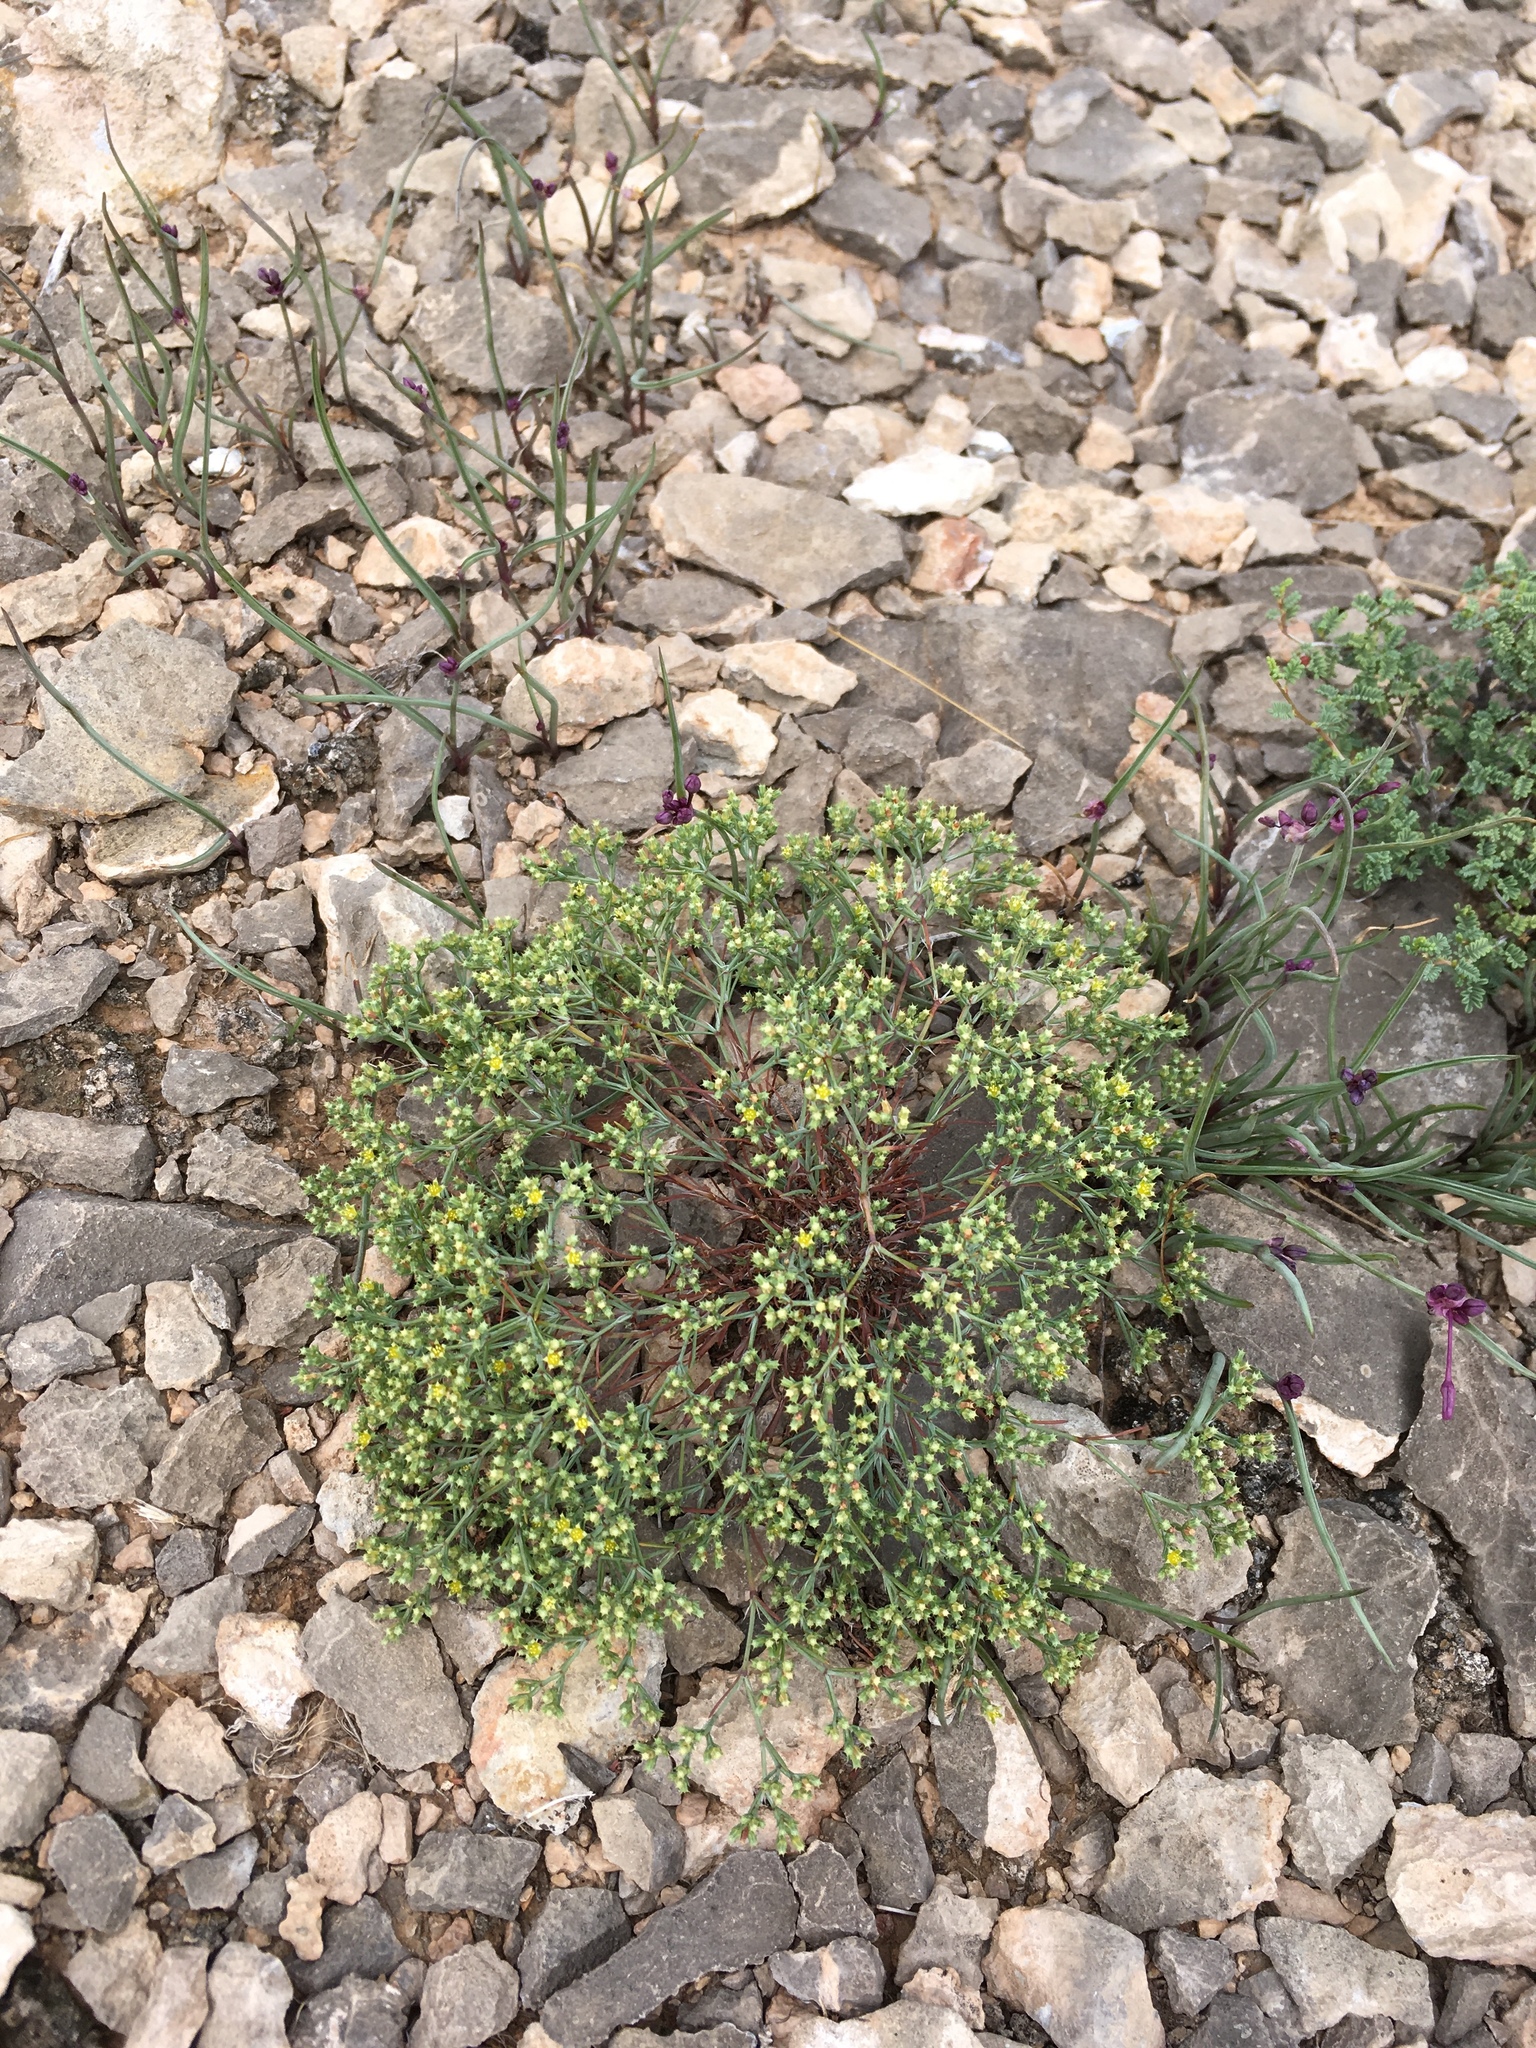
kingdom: Plantae
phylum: Tracheophyta
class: Magnoliopsida
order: Caryophyllales
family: Caryophyllaceae
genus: Paronychia
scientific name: Paronychia jamesii
